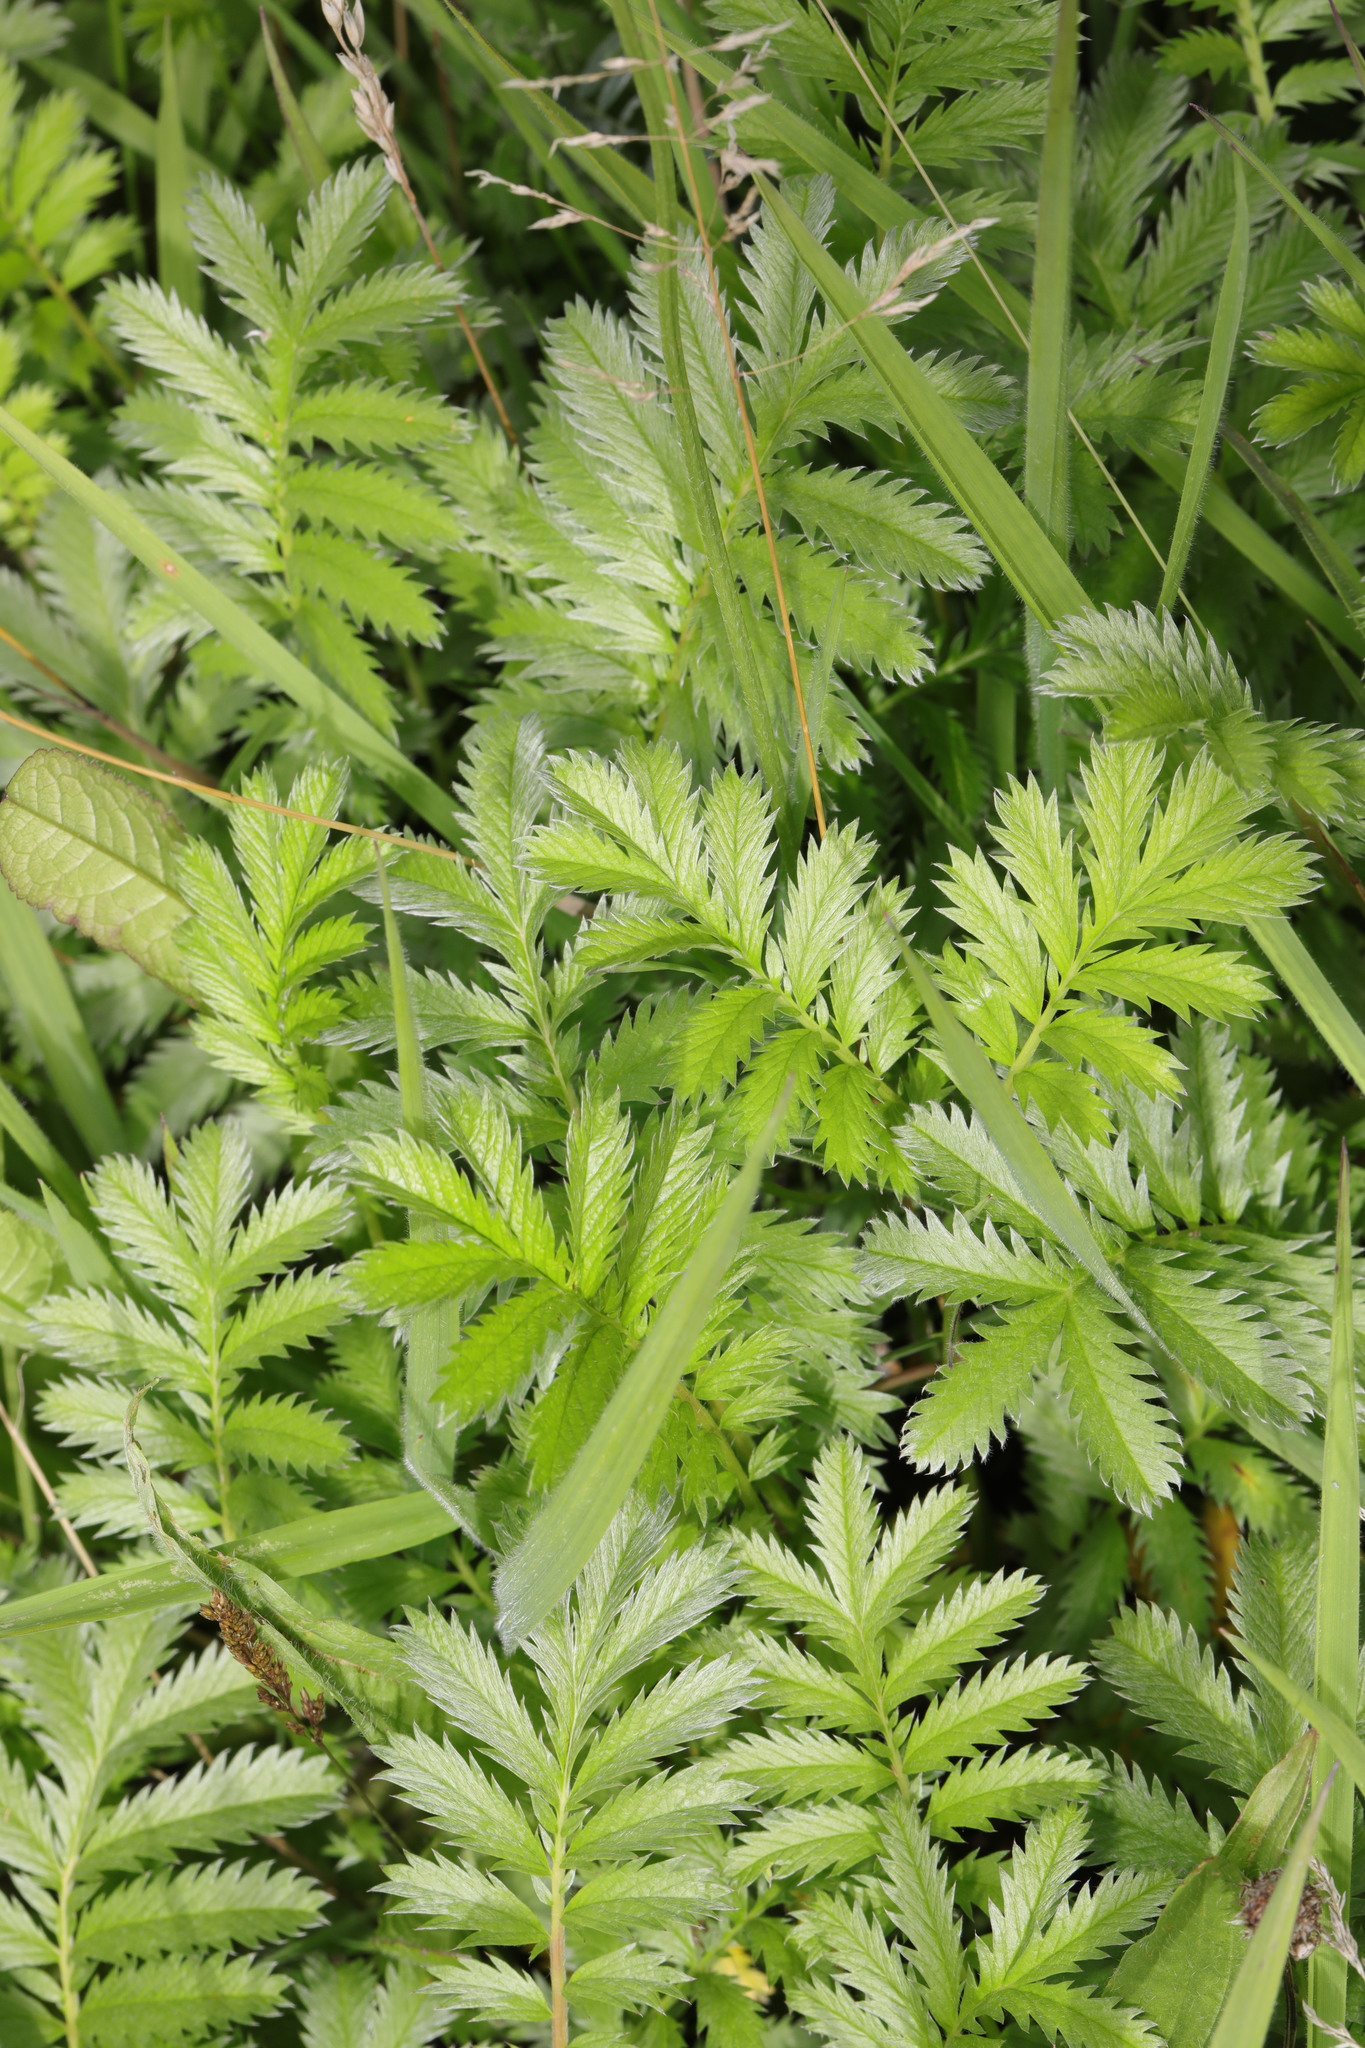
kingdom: Plantae
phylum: Tracheophyta
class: Magnoliopsida
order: Rosales
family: Rosaceae
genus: Argentina
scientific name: Argentina anserina
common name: Common silverweed
